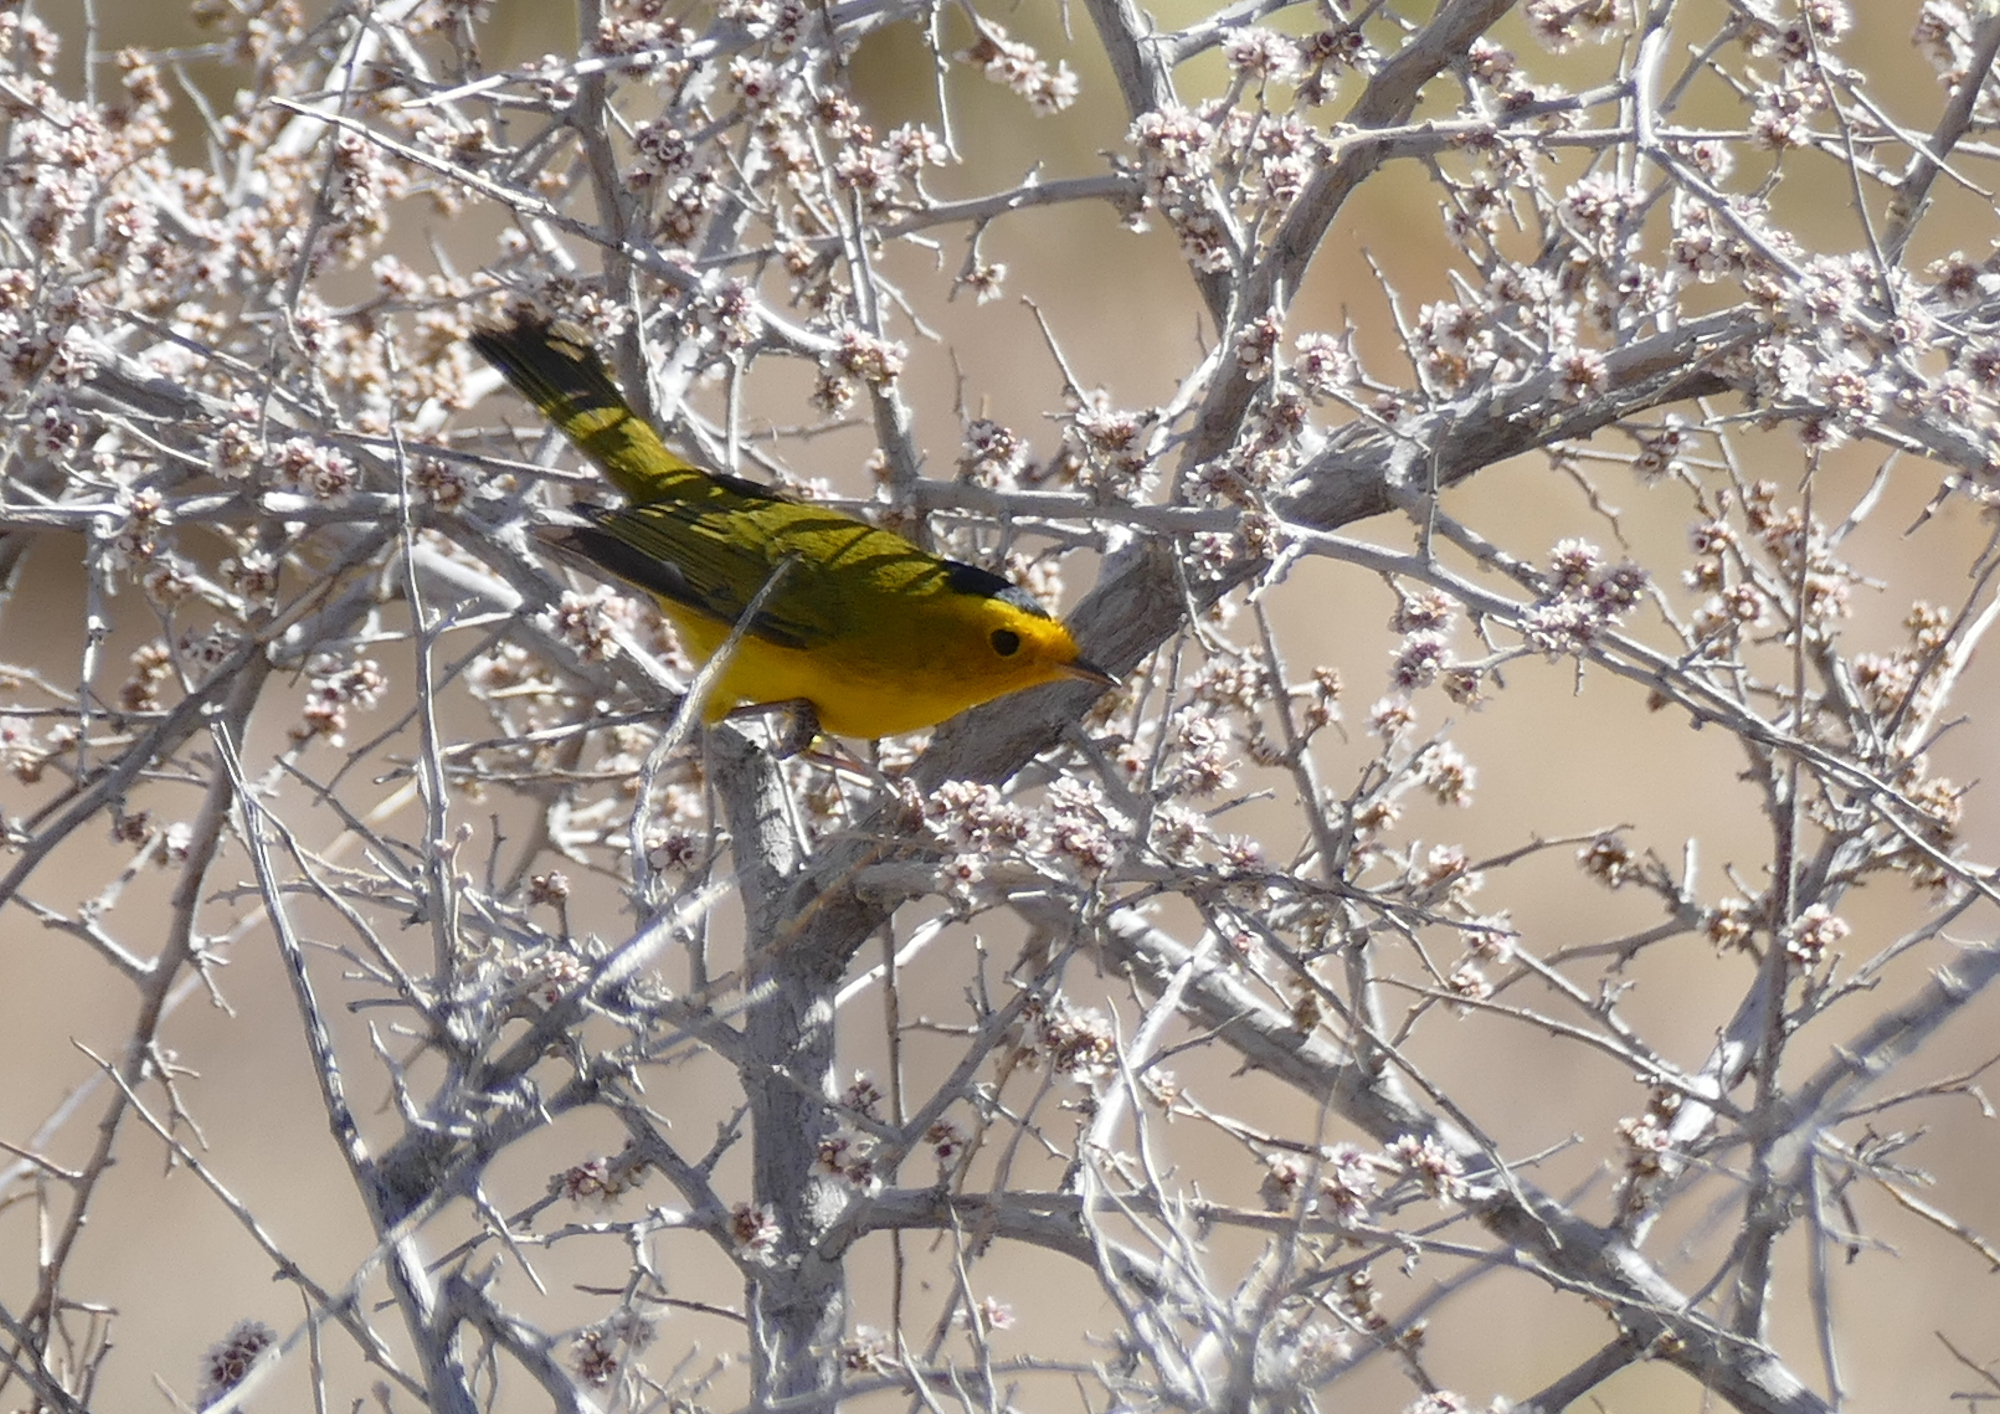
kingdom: Animalia
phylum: Chordata
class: Aves
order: Passeriformes
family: Parulidae
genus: Cardellina
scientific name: Cardellina pusilla
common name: Wilson's warbler
